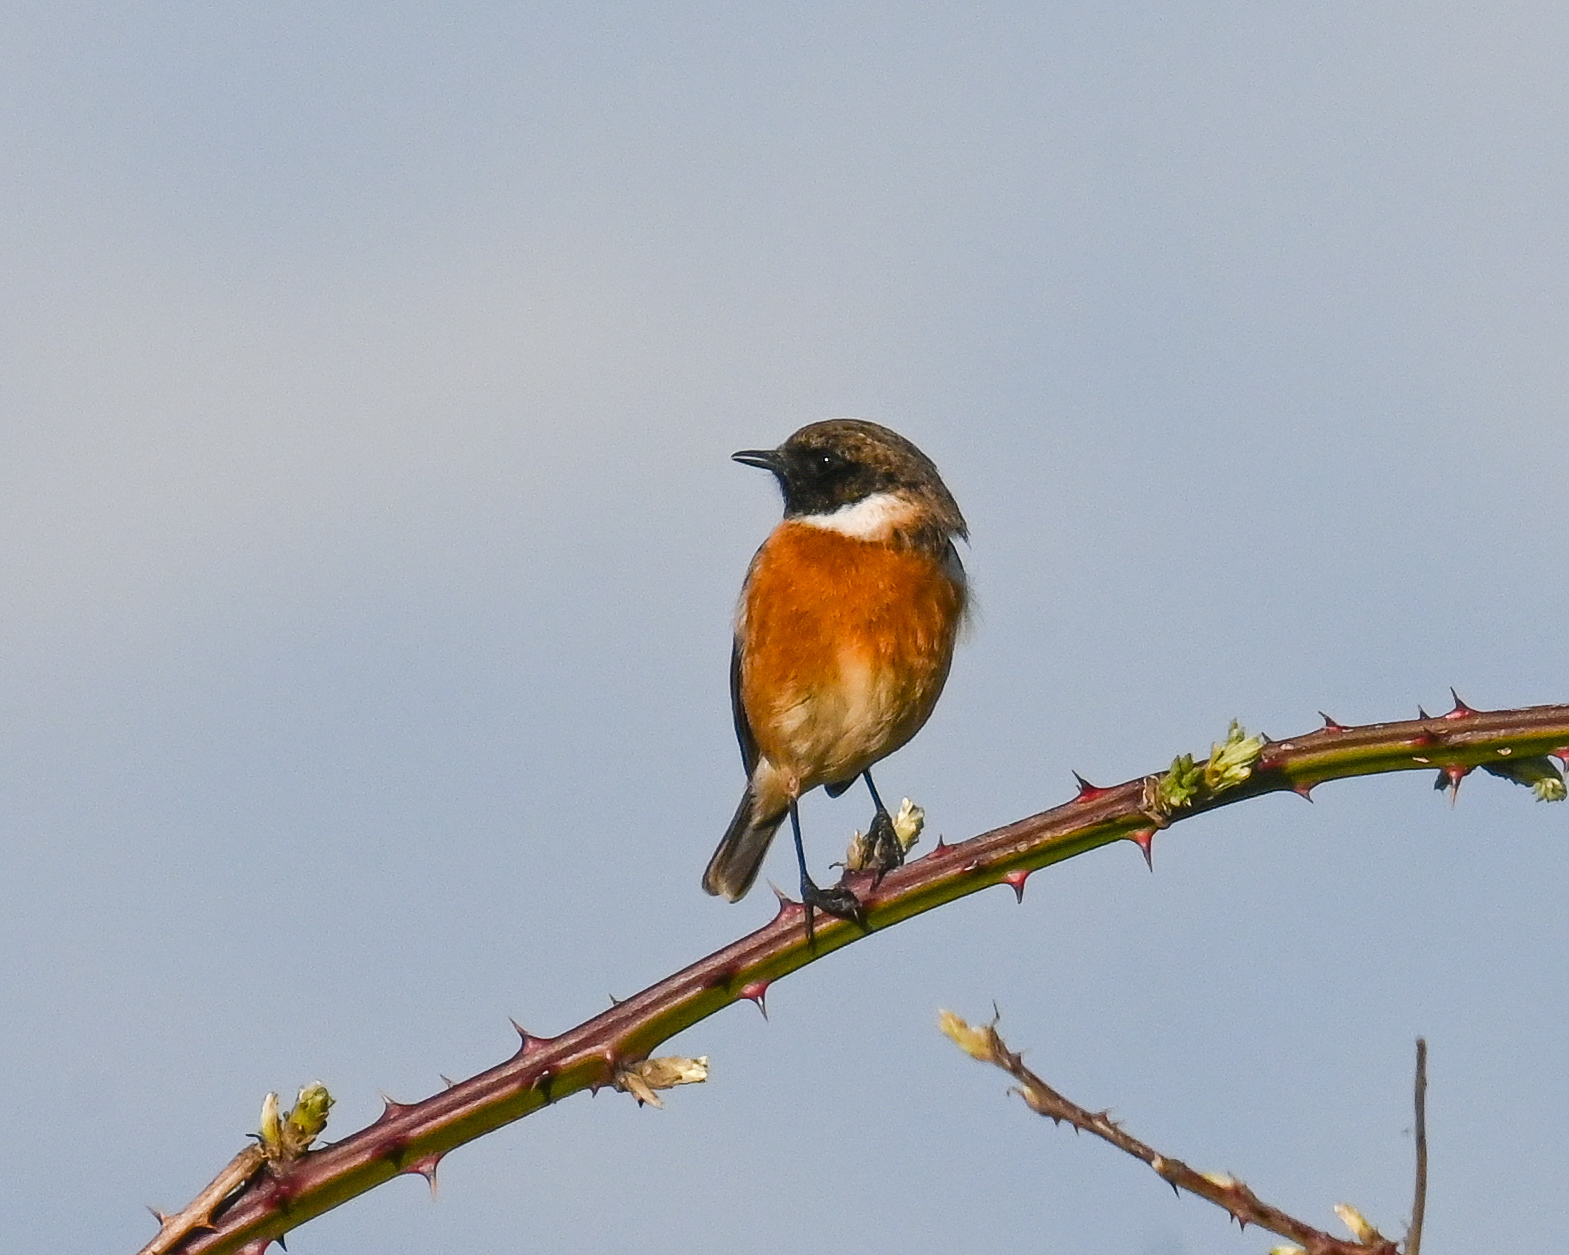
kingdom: Animalia
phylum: Chordata
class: Aves
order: Passeriformes
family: Muscicapidae
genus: Saxicola
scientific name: Saxicola rubicola
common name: European stonechat
